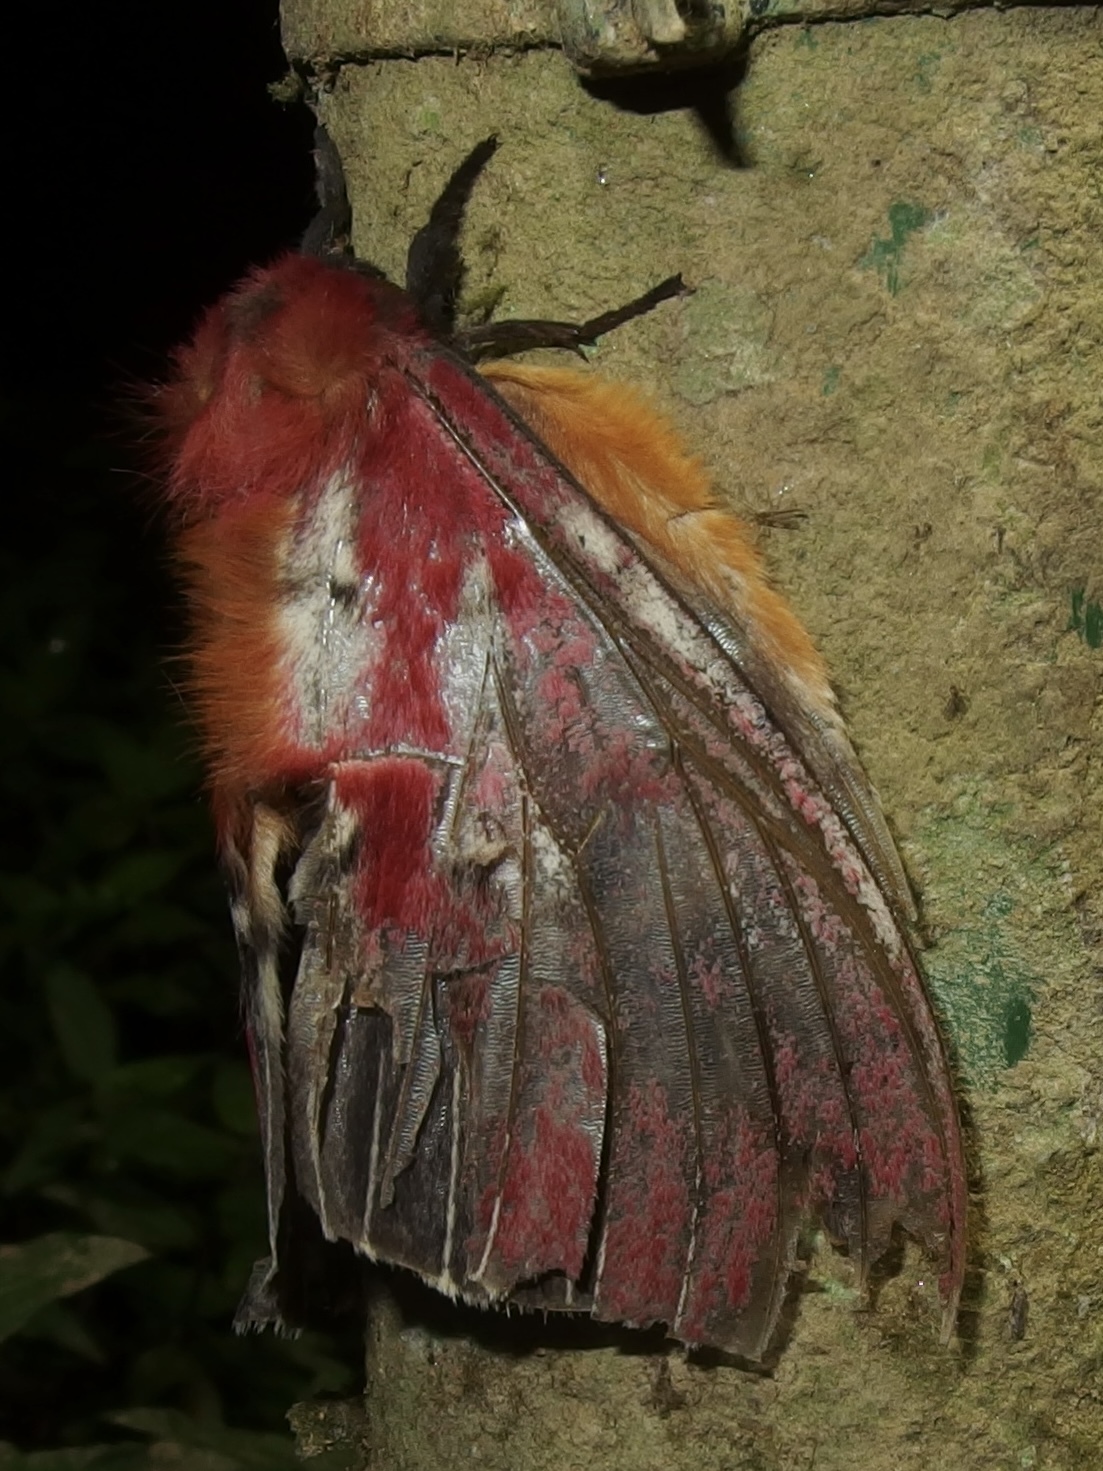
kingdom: Animalia
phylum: Arthropoda
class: Insecta
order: Lepidoptera
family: Saturniidae
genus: Rhodirphia
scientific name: Rhodirphia carminata
